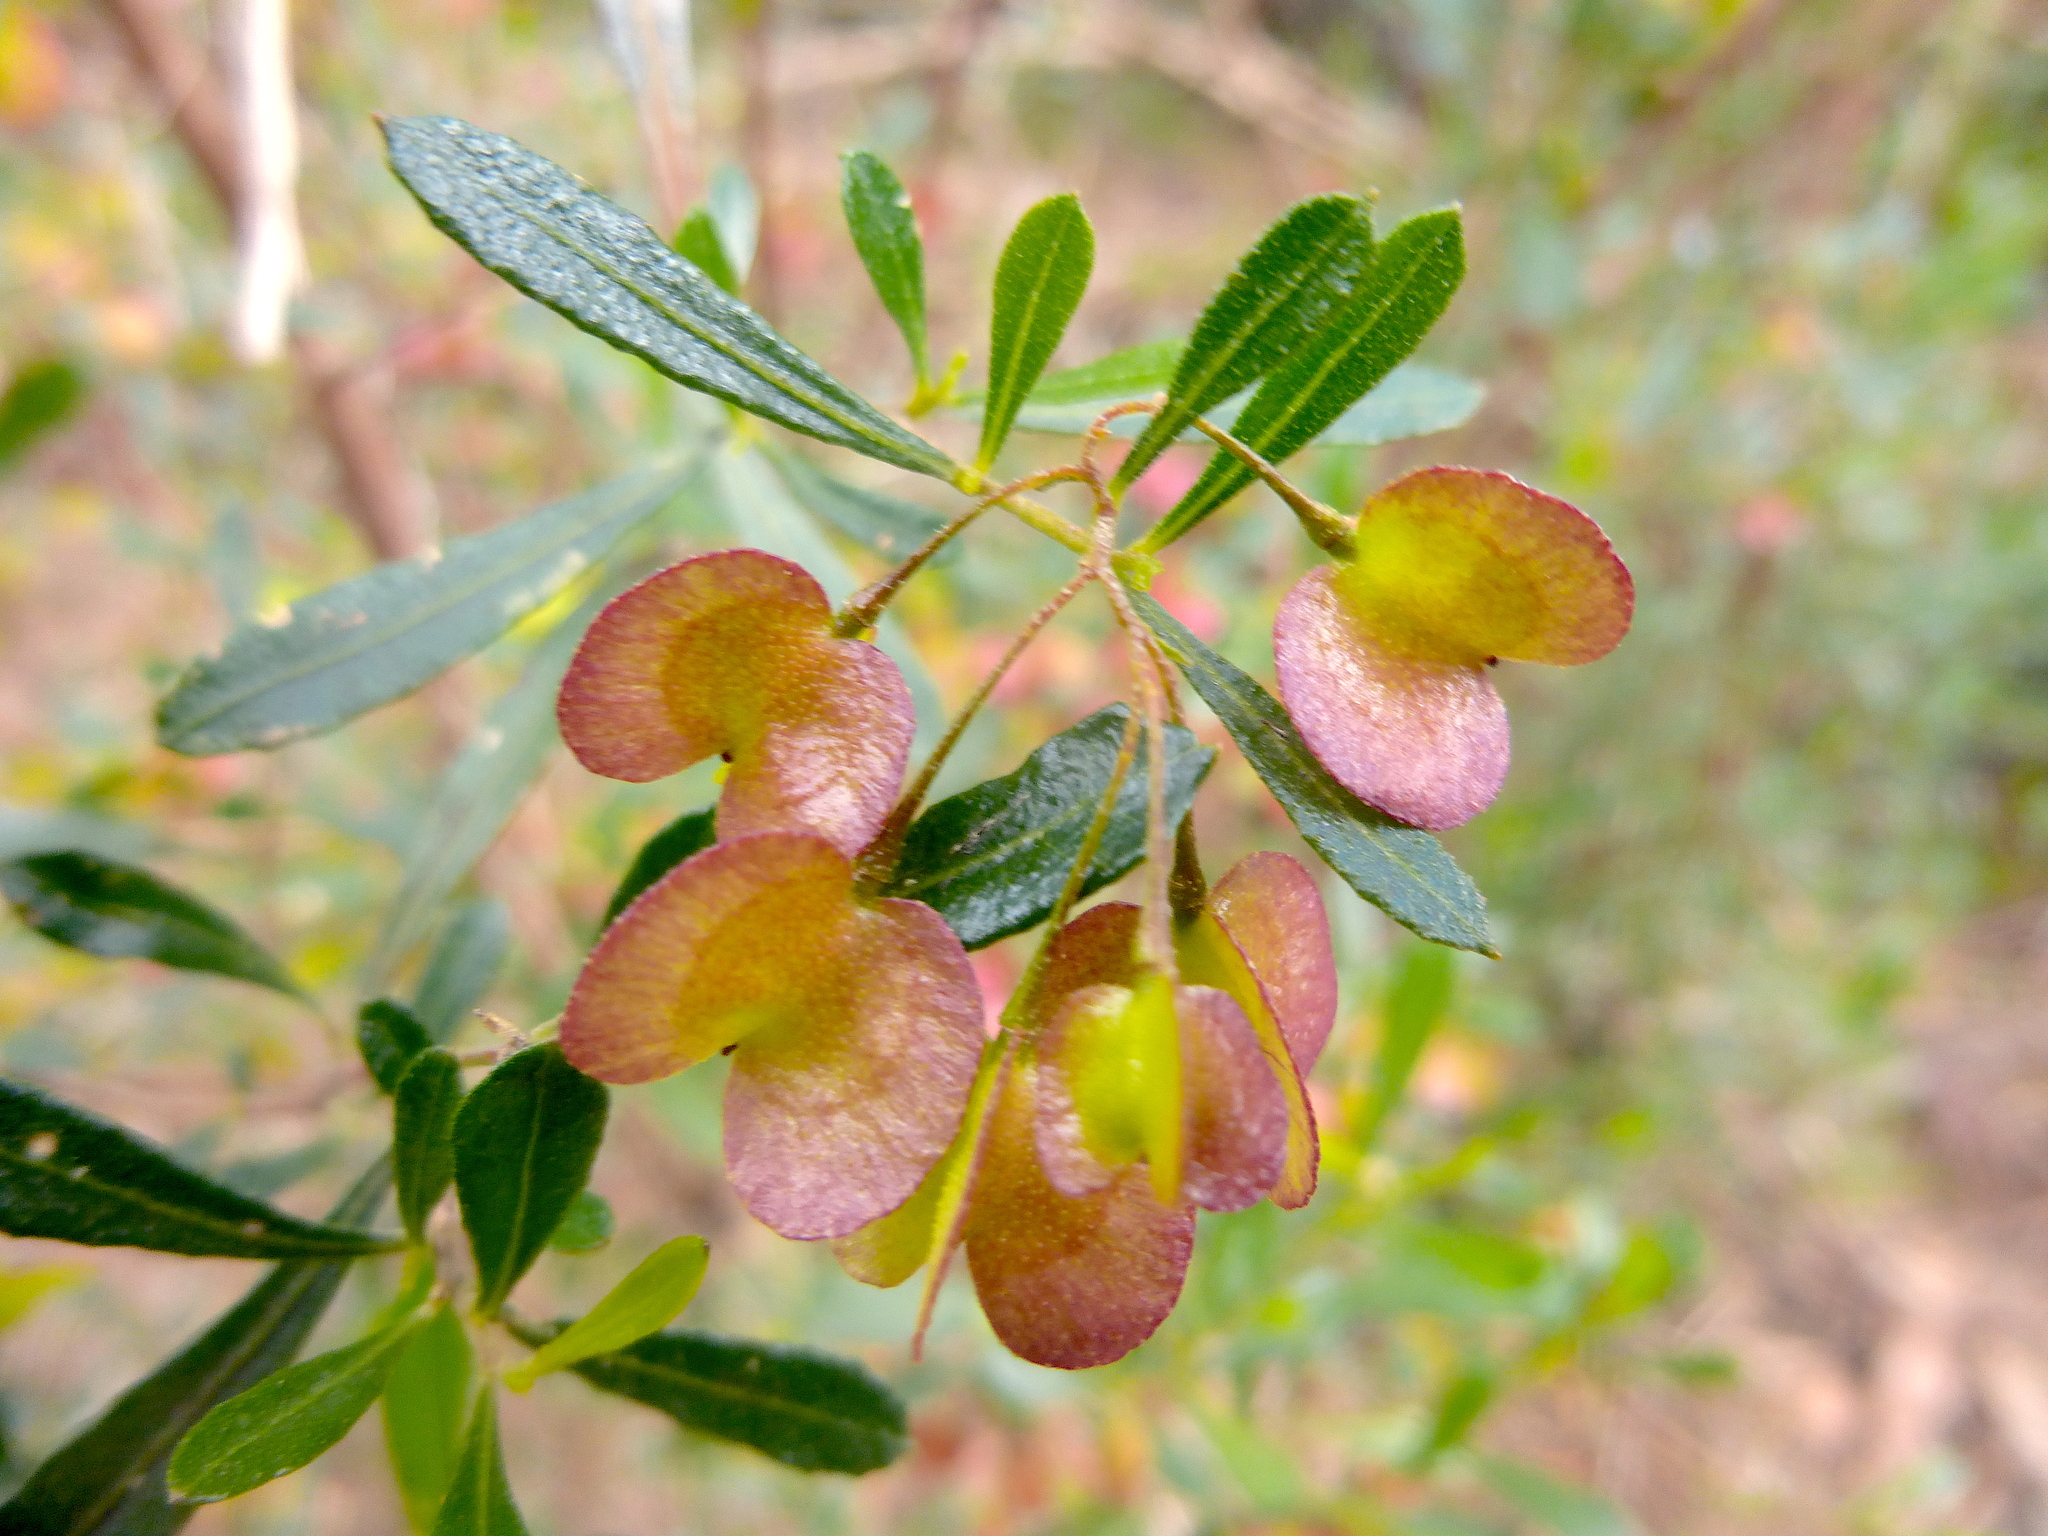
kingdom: Plantae
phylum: Tracheophyta
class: Magnoliopsida
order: Sapindales
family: Sapindaceae
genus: Dodonaea
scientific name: Dodonaea viscosa
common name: Hopbush
